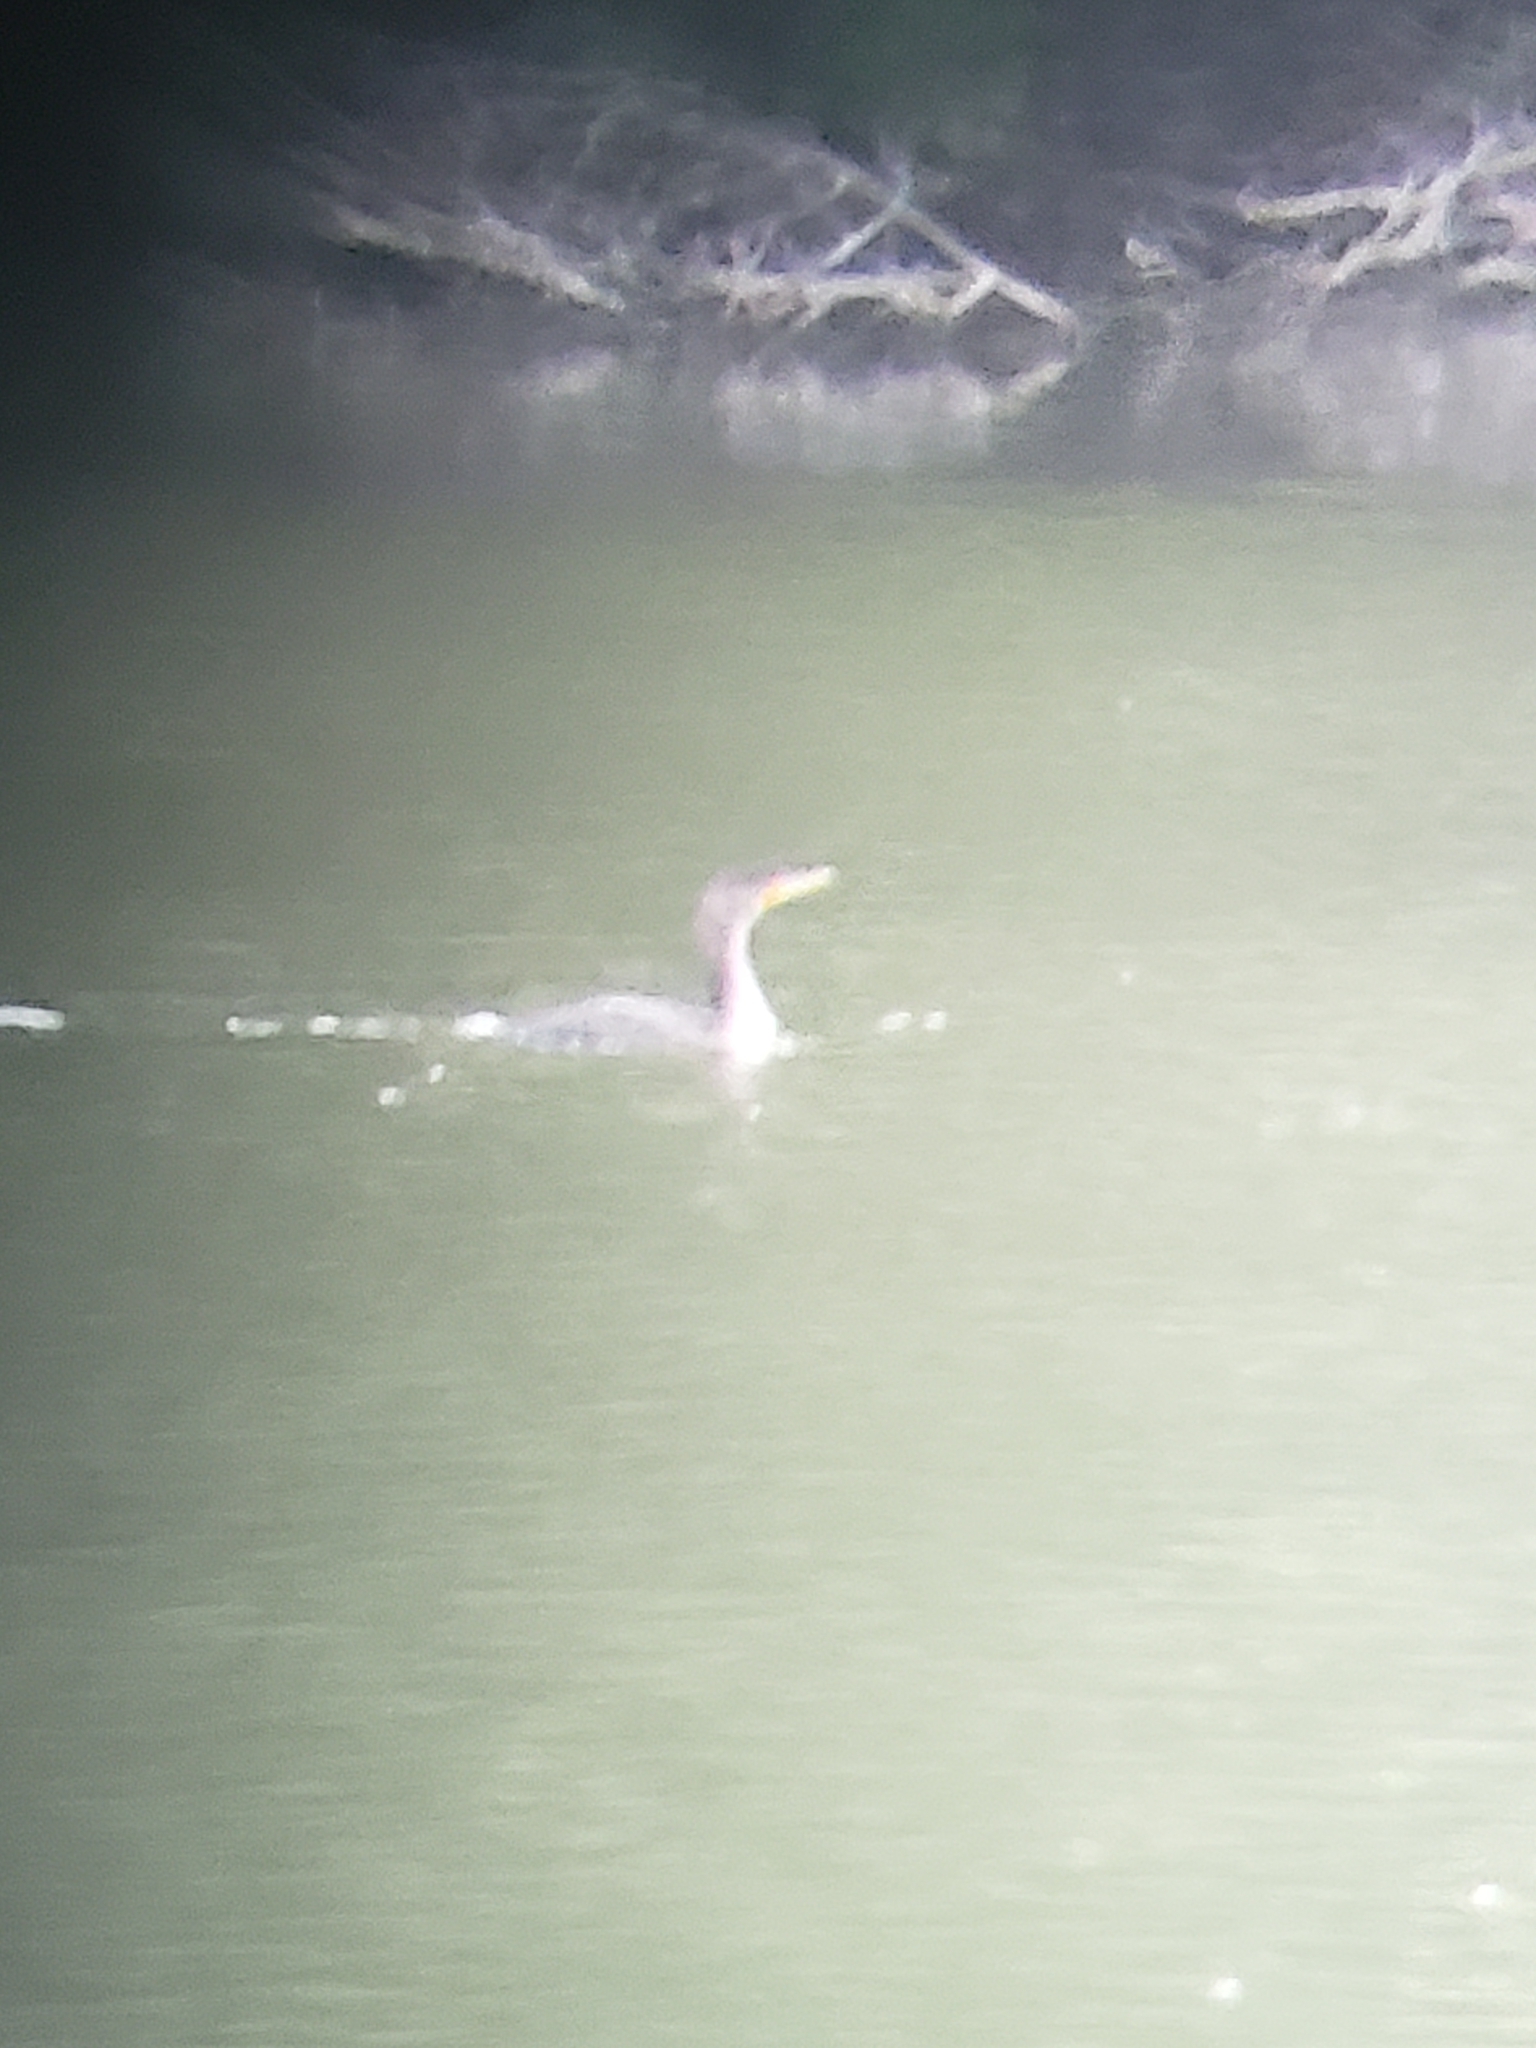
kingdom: Animalia
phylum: Chordata
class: Aves
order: Suliformes
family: Phalacrocoracidae
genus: Phalacrocorax
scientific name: Phalacrocorax auritus
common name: Double-crested cormorant
